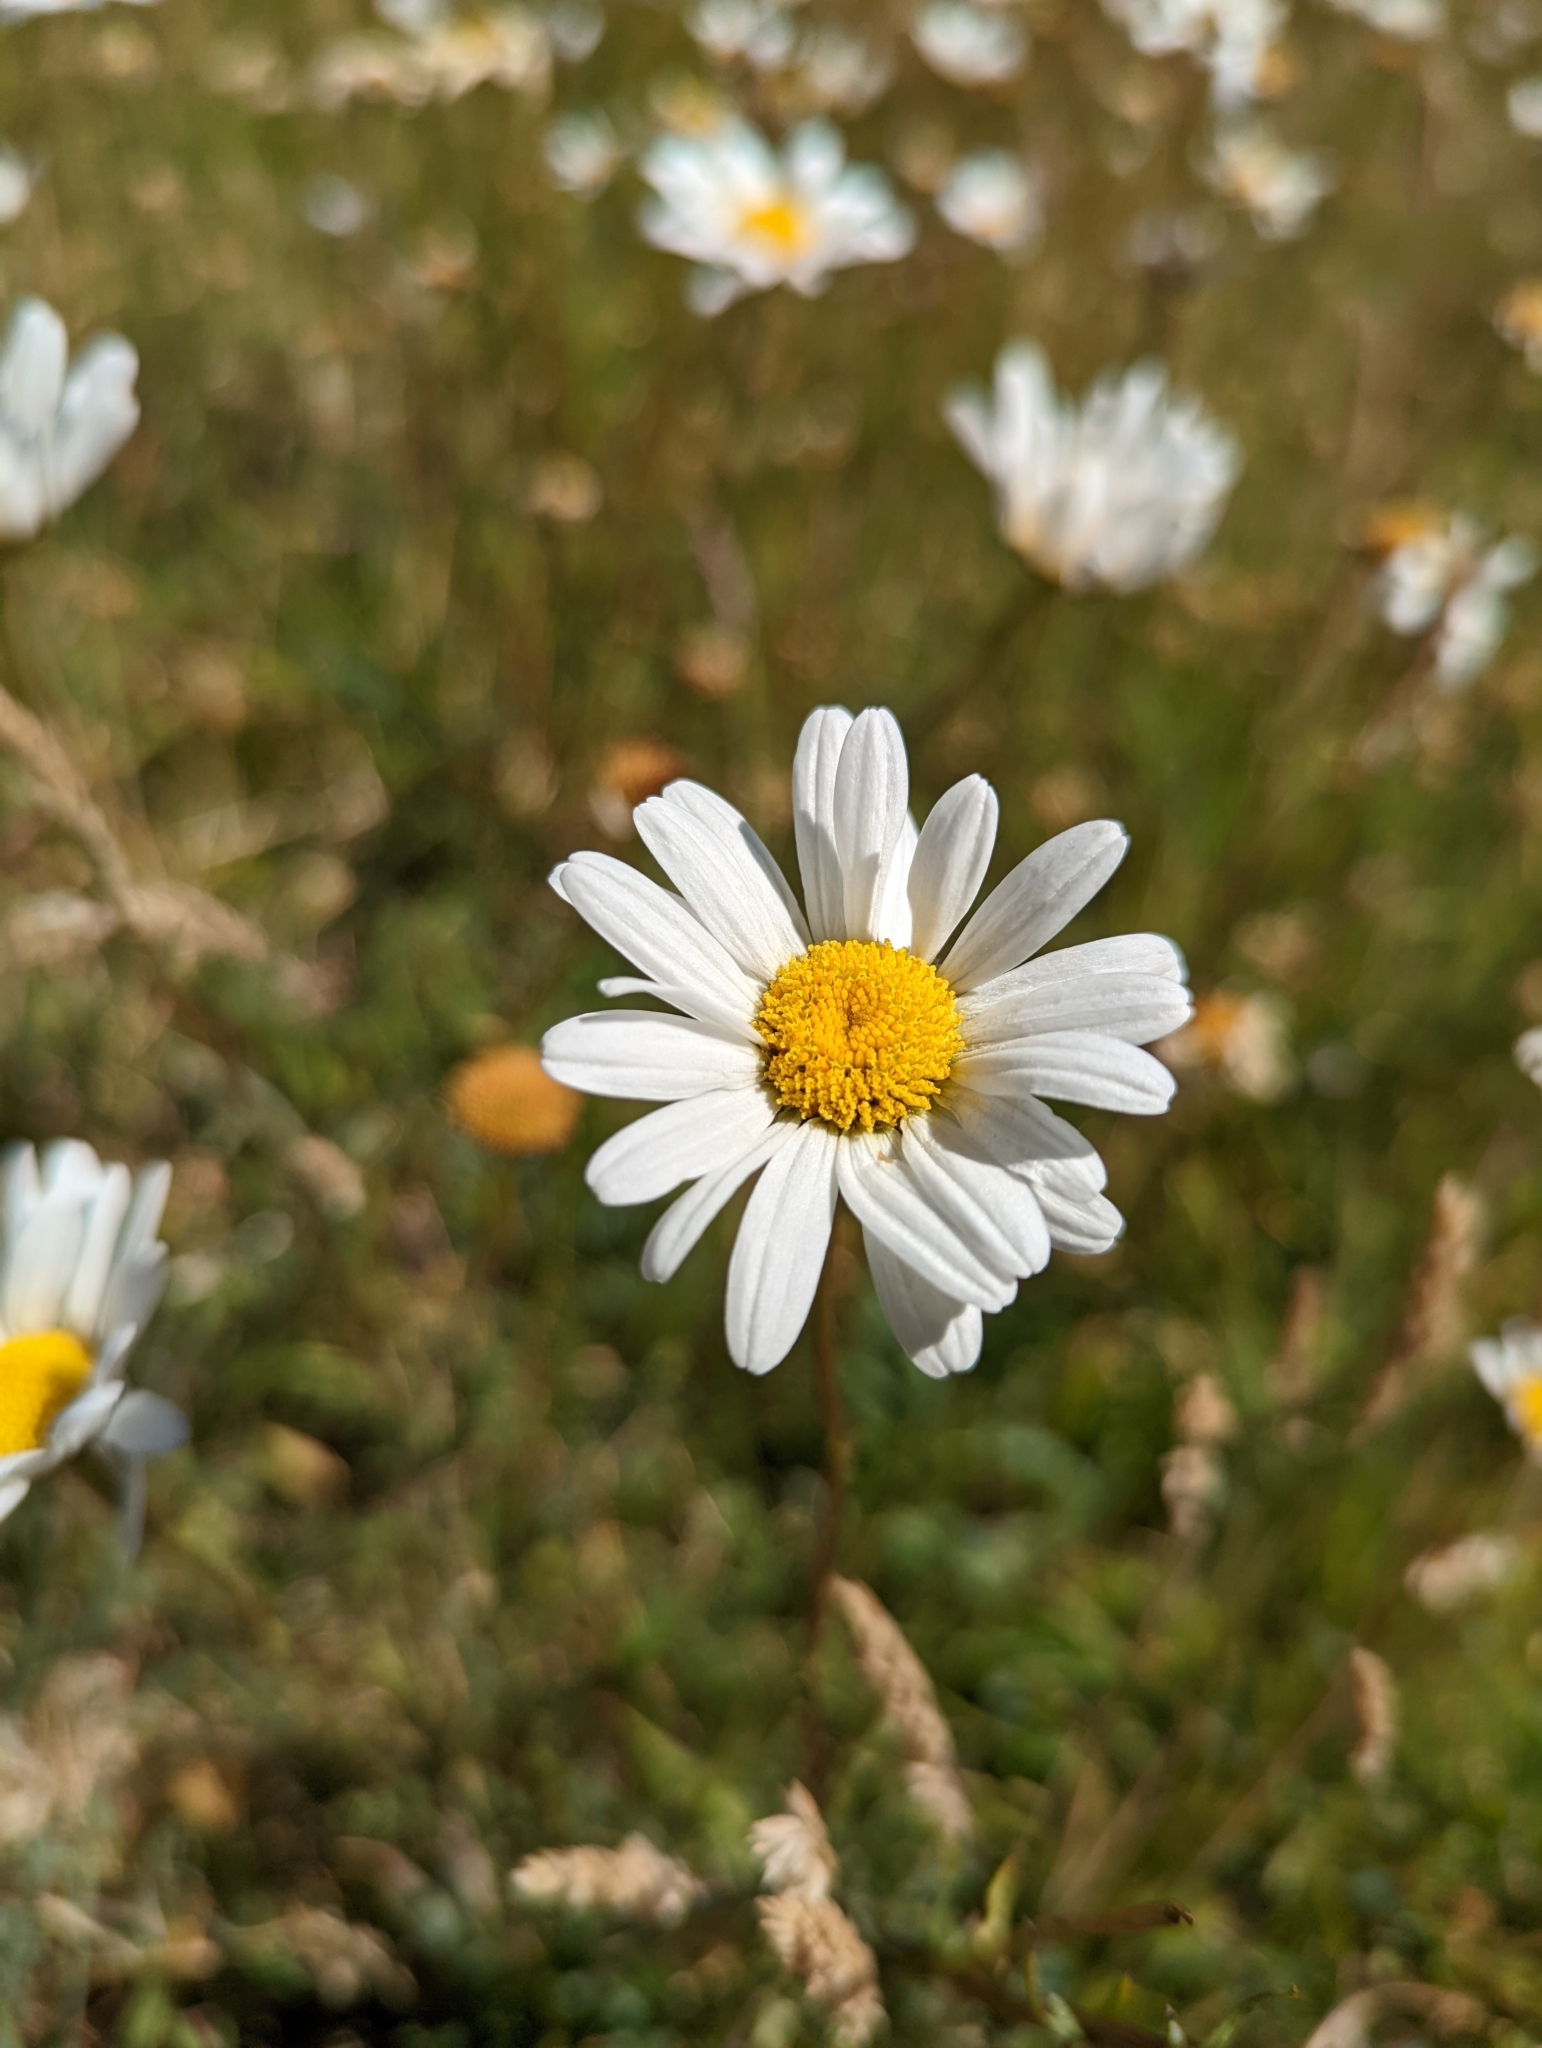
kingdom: Plantae
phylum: Tracheophyta
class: Magnoliopsida
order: Asterales
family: Asteraceae
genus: Leucanthemum
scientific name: Leucanthemum vulgare
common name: Oxeye daisy
